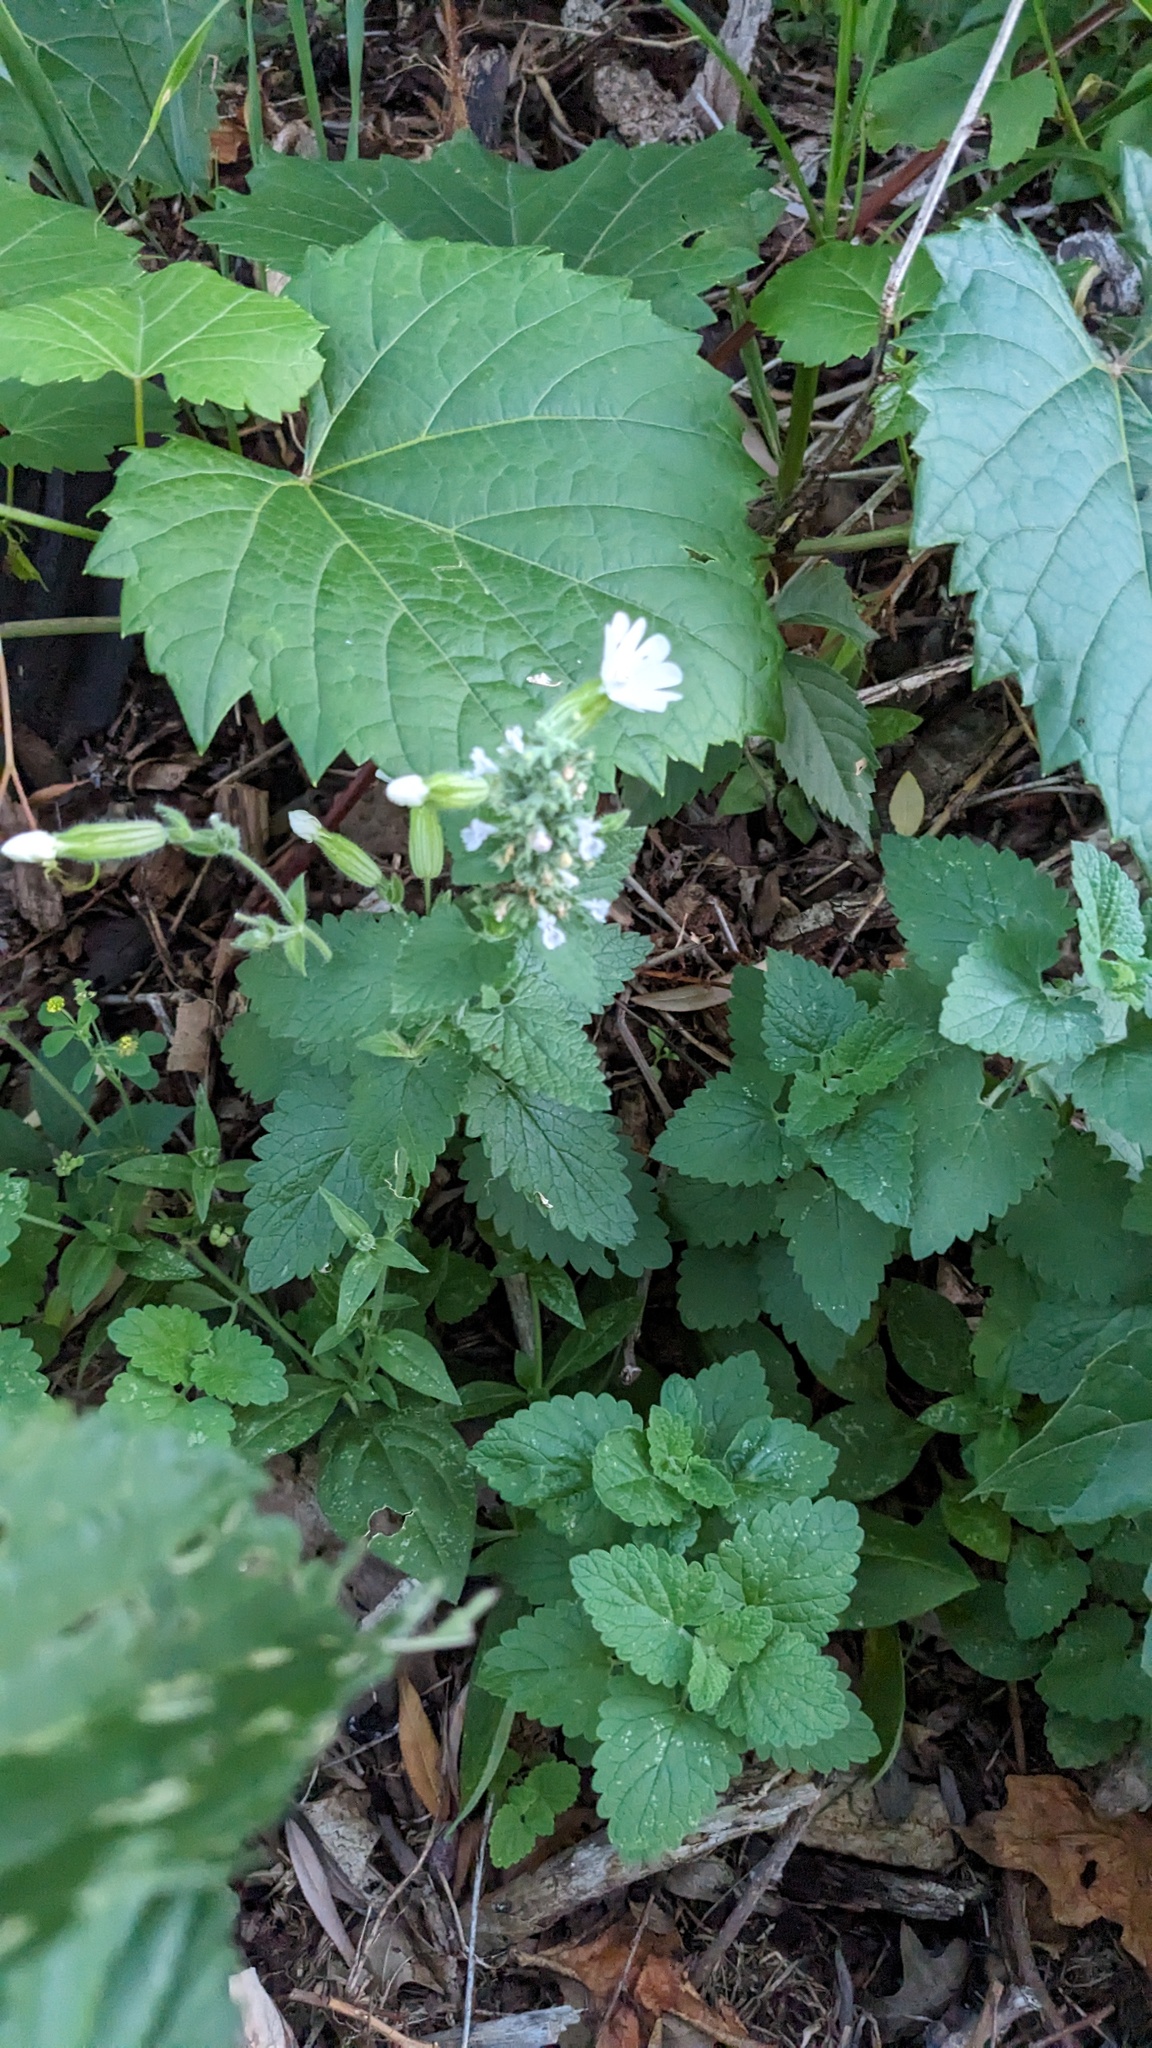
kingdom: Plantae
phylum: Tracheophyta
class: Magnoliopsida
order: Caryophyllales
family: Caryophyllaceae
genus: Silene
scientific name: Silene latifolia
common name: White campion
